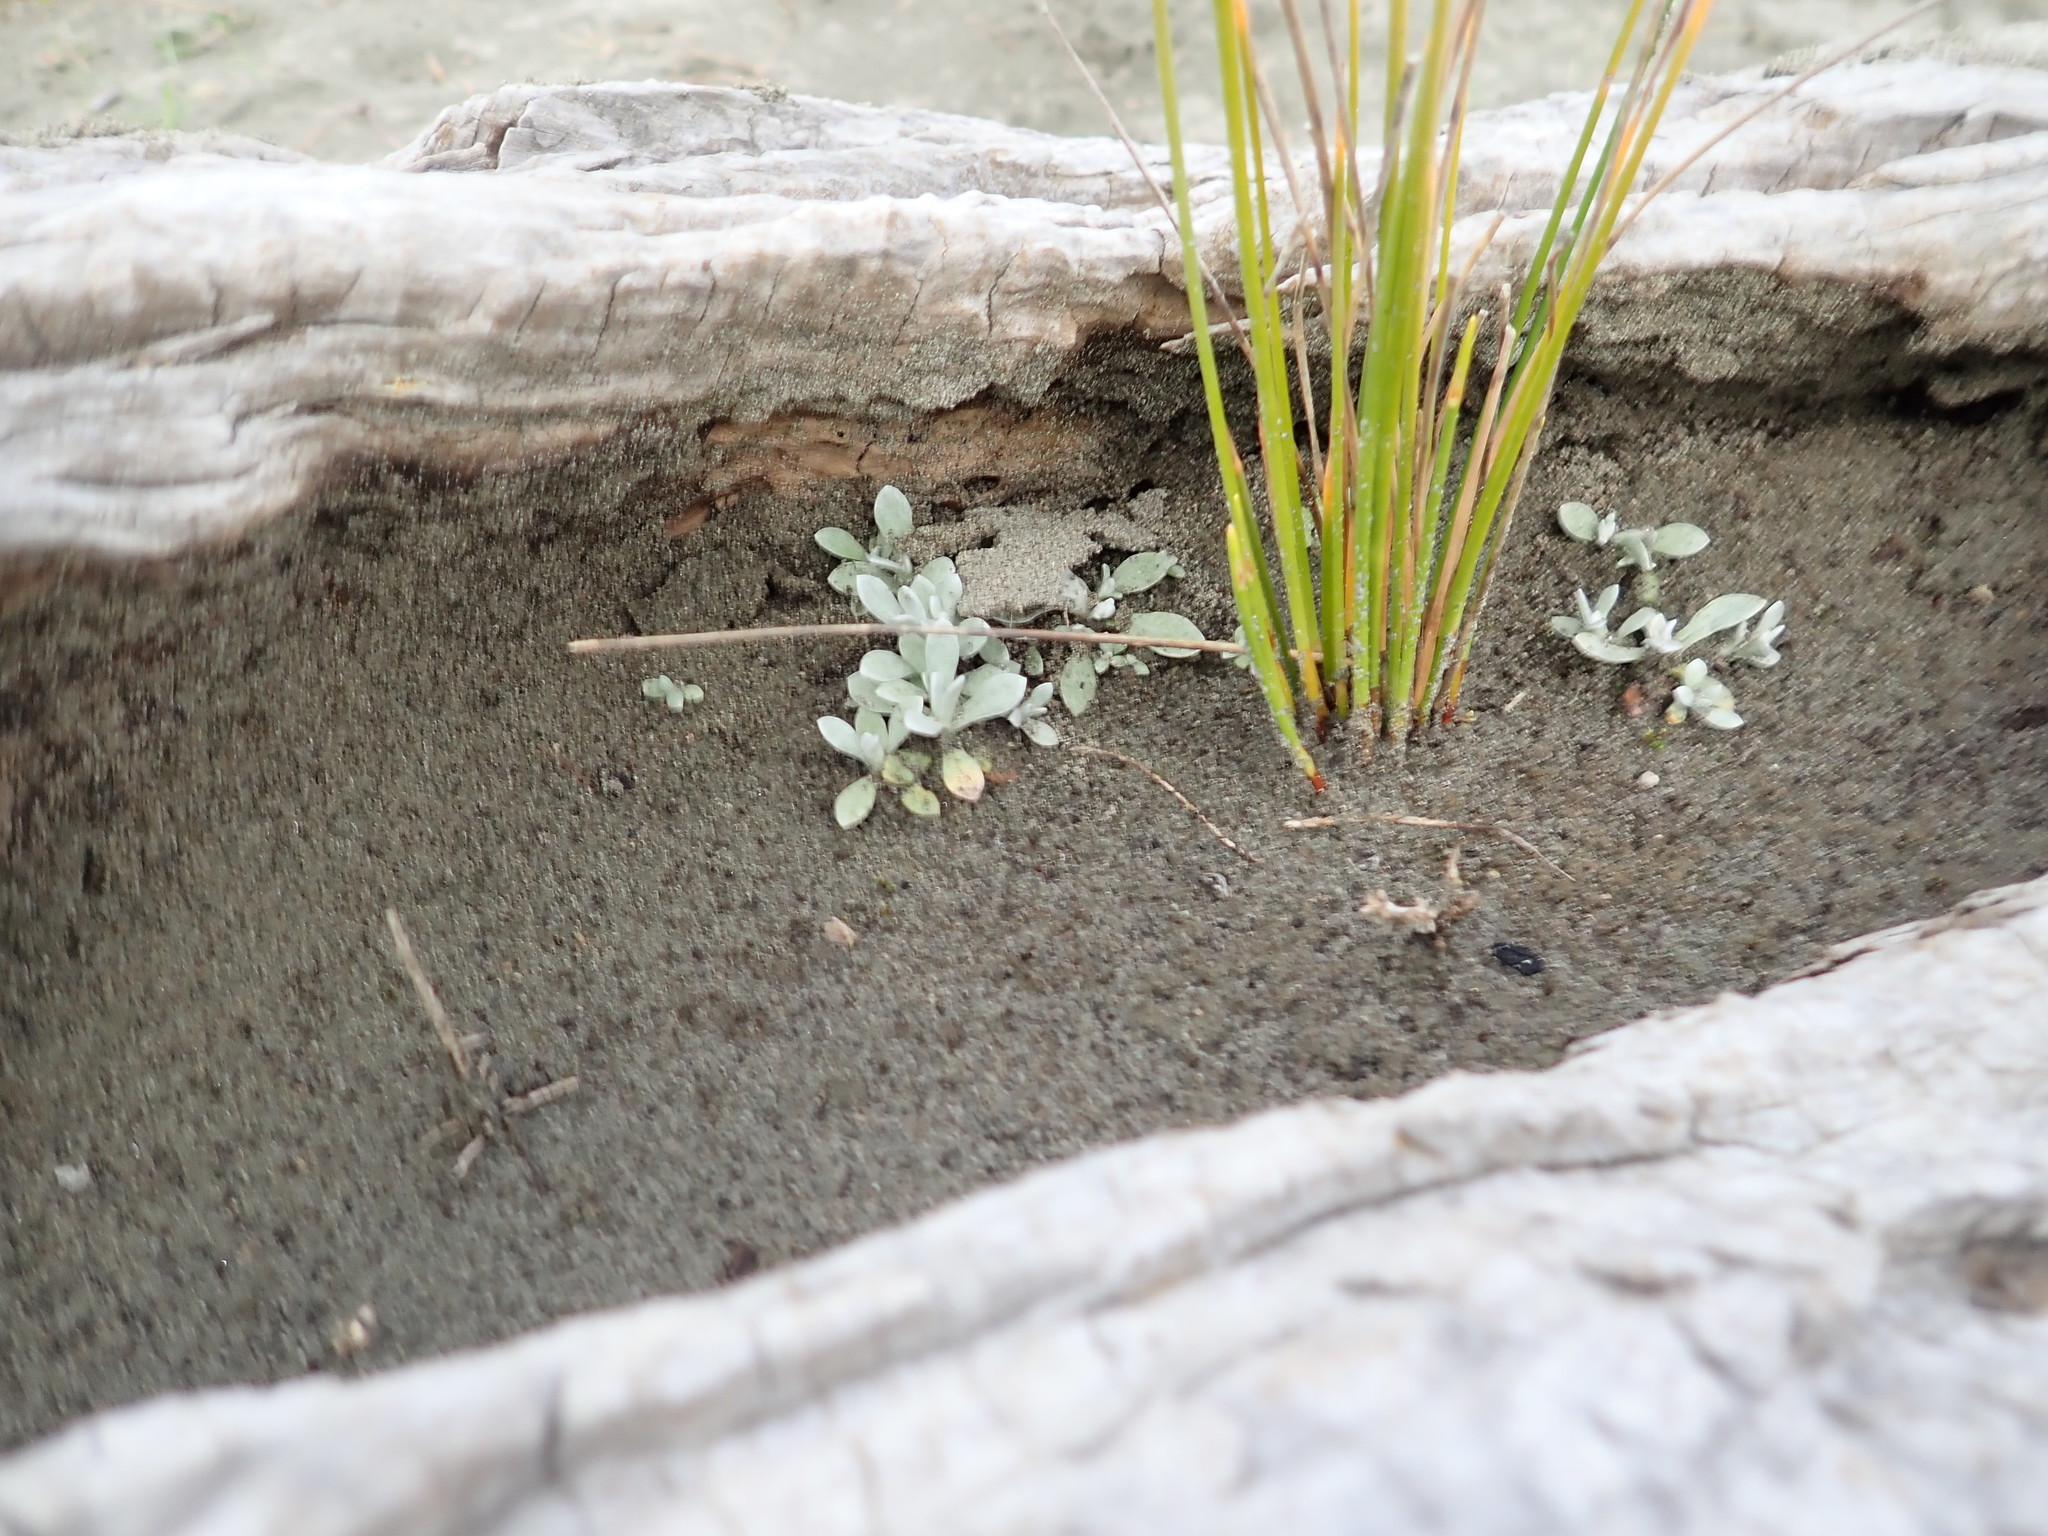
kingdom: Plantae
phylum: Tracheophyta
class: Magnoliopsida
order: Asterales
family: Asteraceae
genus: Helichrysum
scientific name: Helichrysum luteoalbum
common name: Daisy
